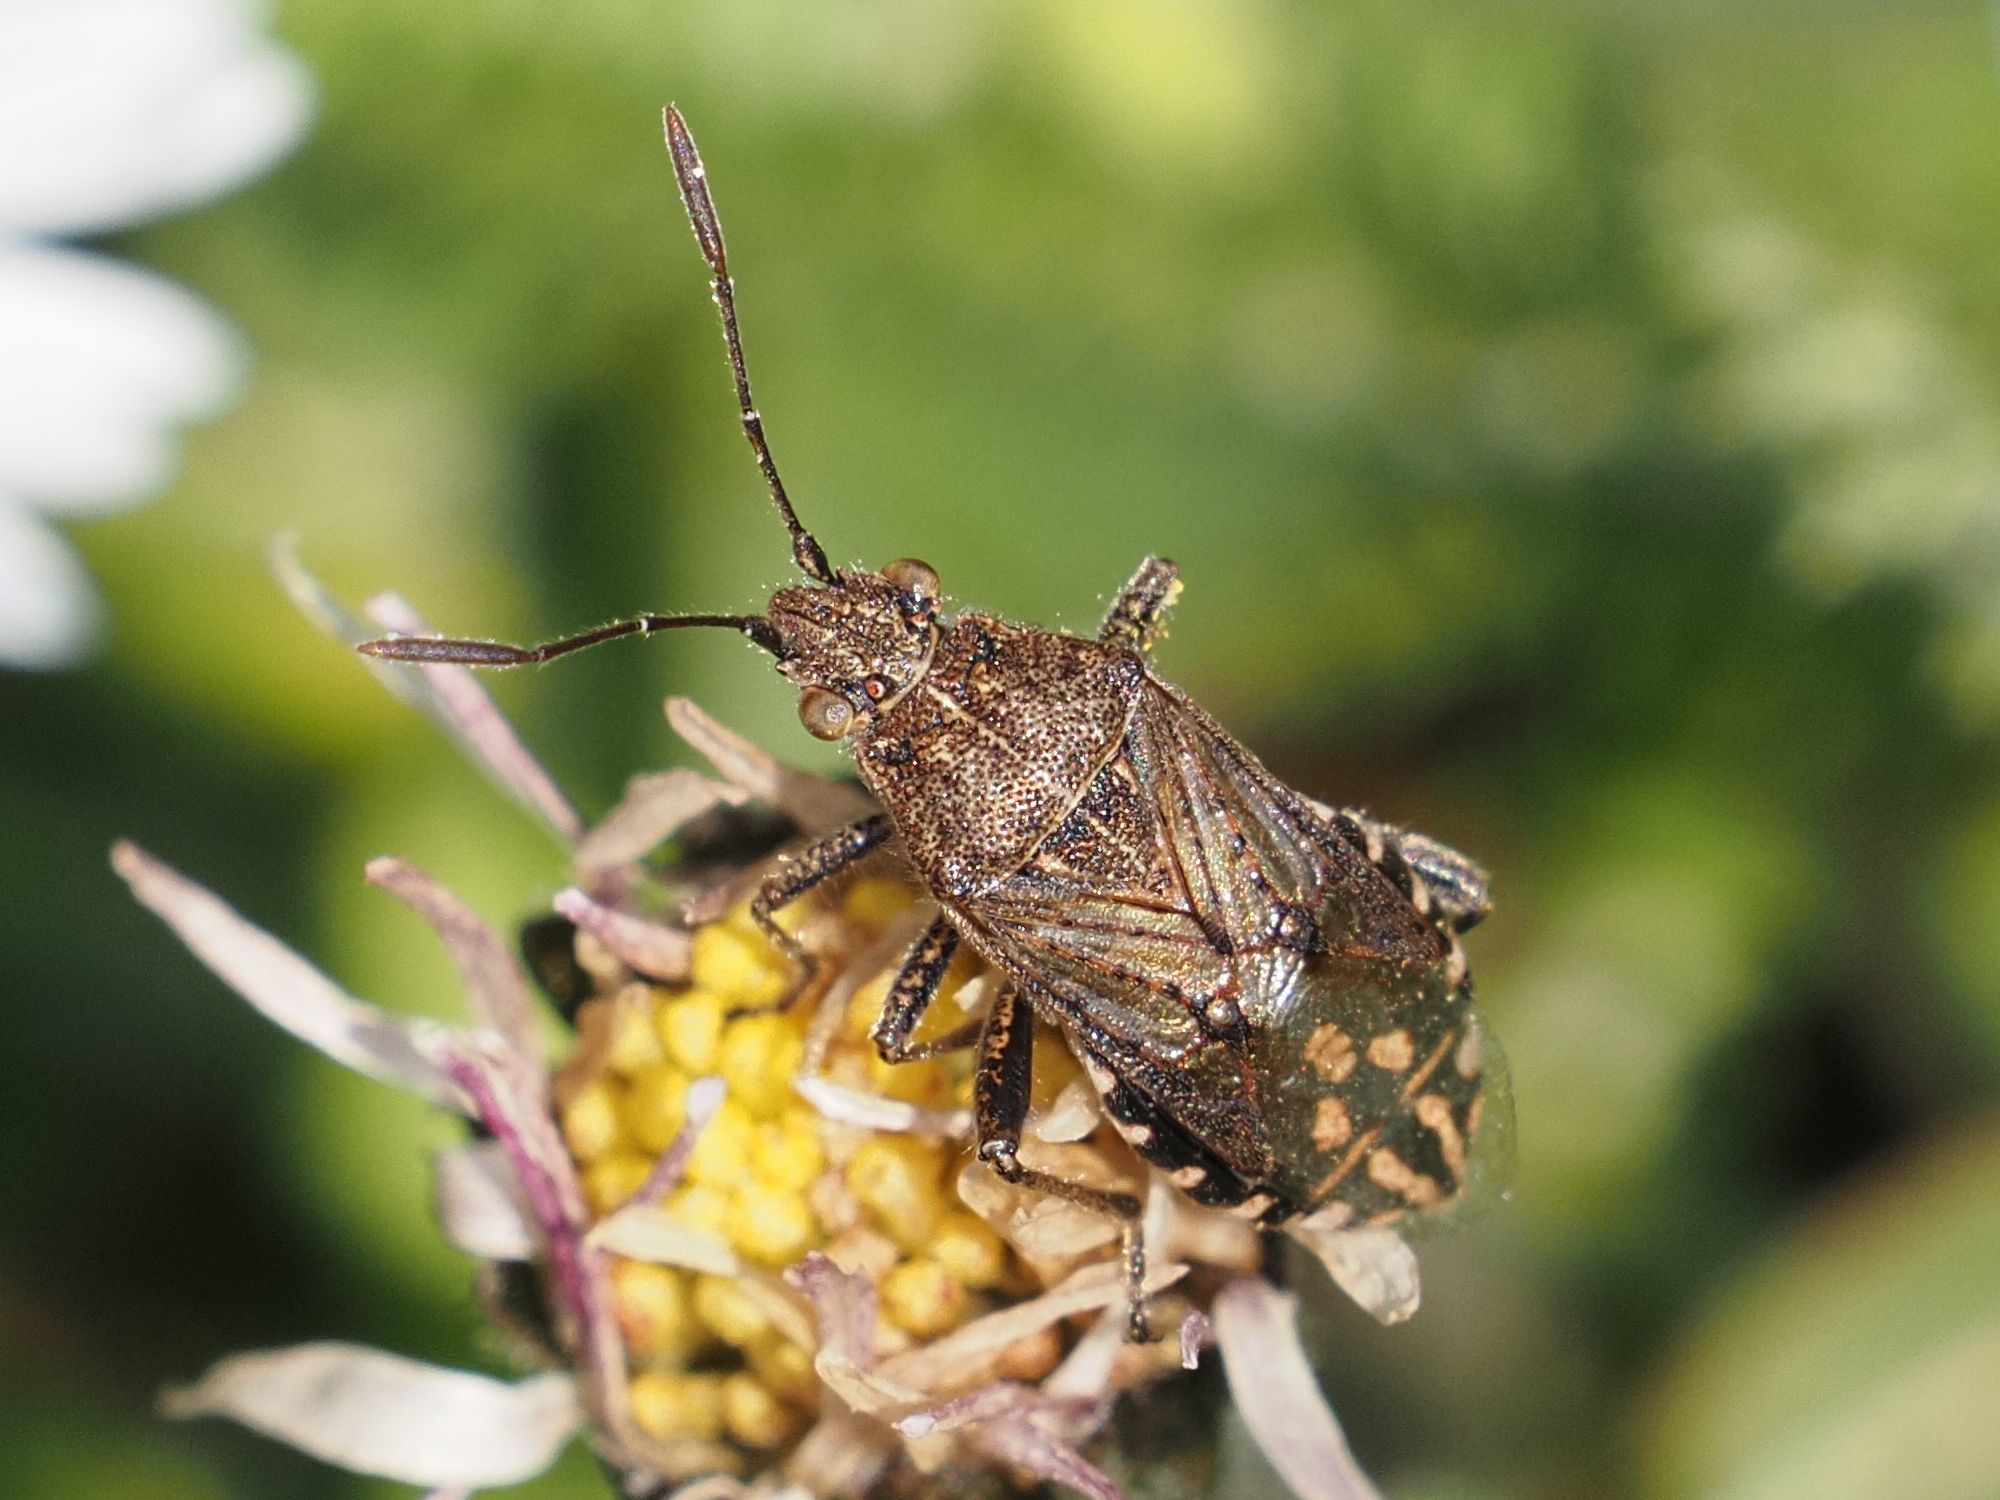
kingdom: Animalia
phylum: Arthropoda
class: Insecta
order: Hemiptera
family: Rhopalidae
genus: Stictopleurus
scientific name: Stictopleurus punctatonervosus
